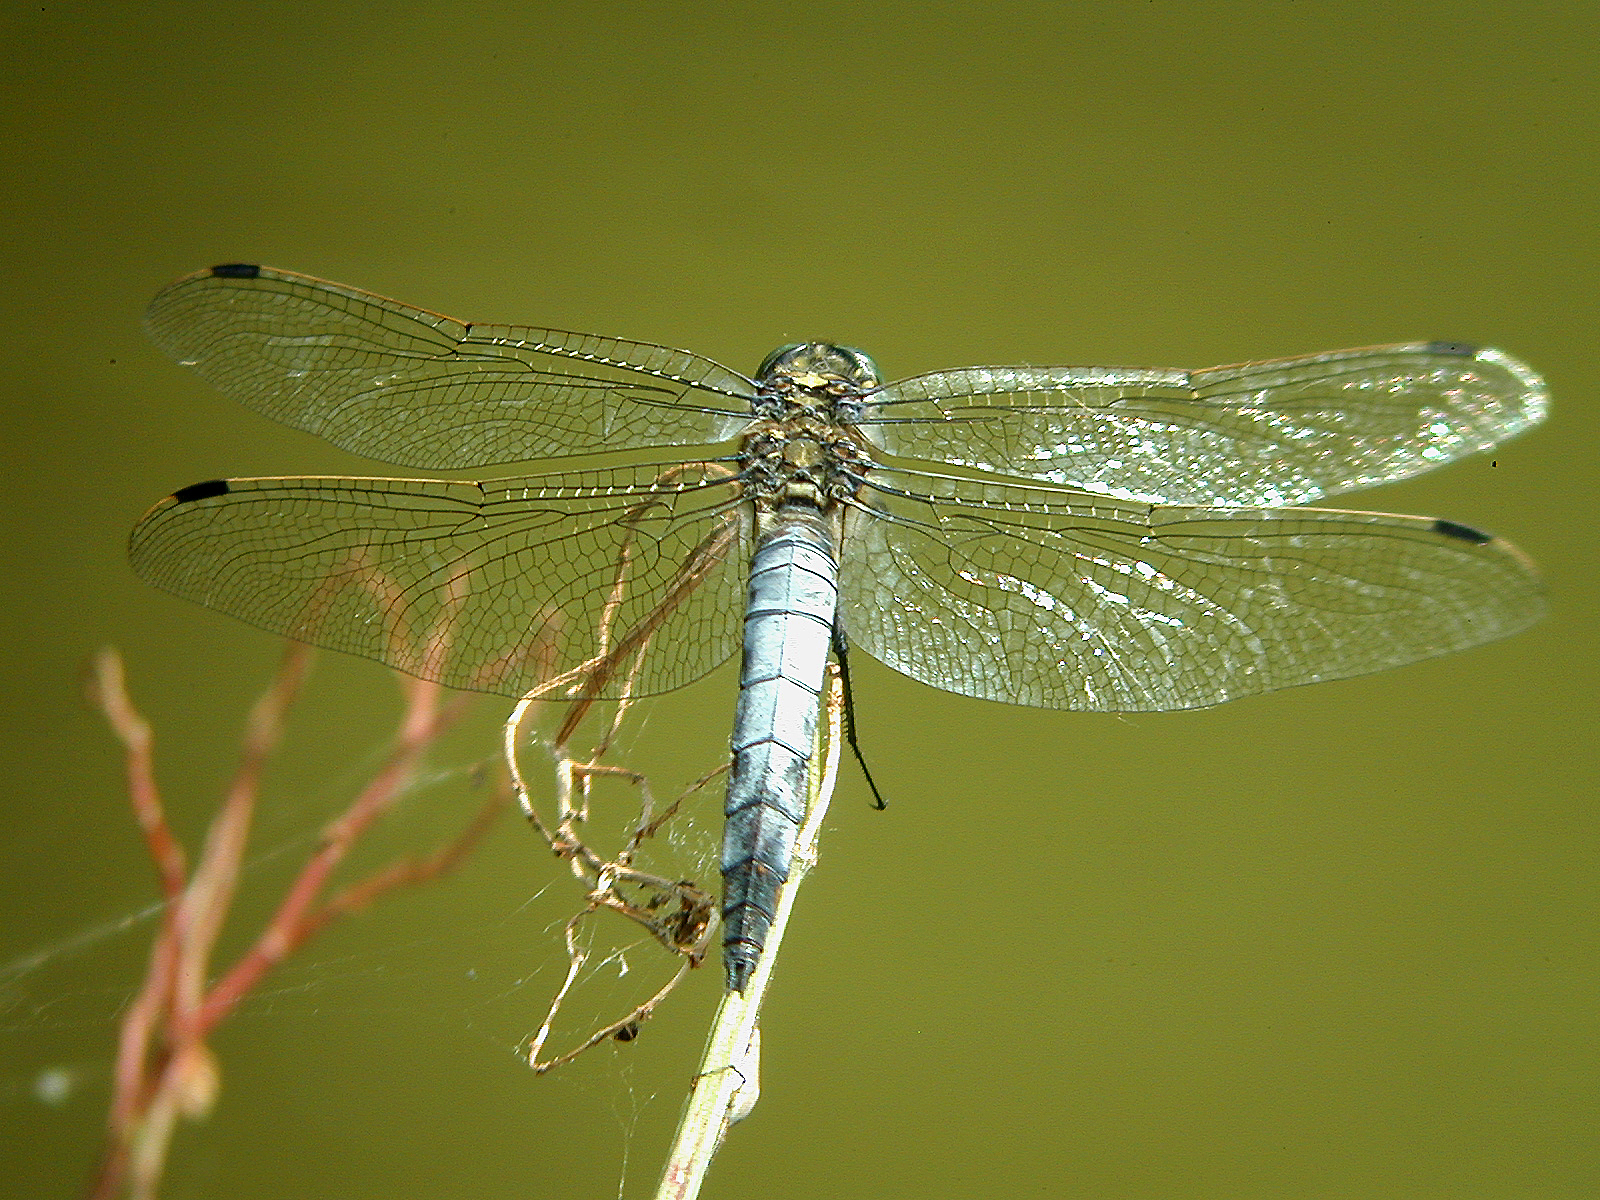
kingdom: Animalia
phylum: Arthropoda
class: Insecta
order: Odonata
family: Libellulidae
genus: Orthetrum
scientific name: Orthetrum cancellatum
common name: Black-tailed skimmer
